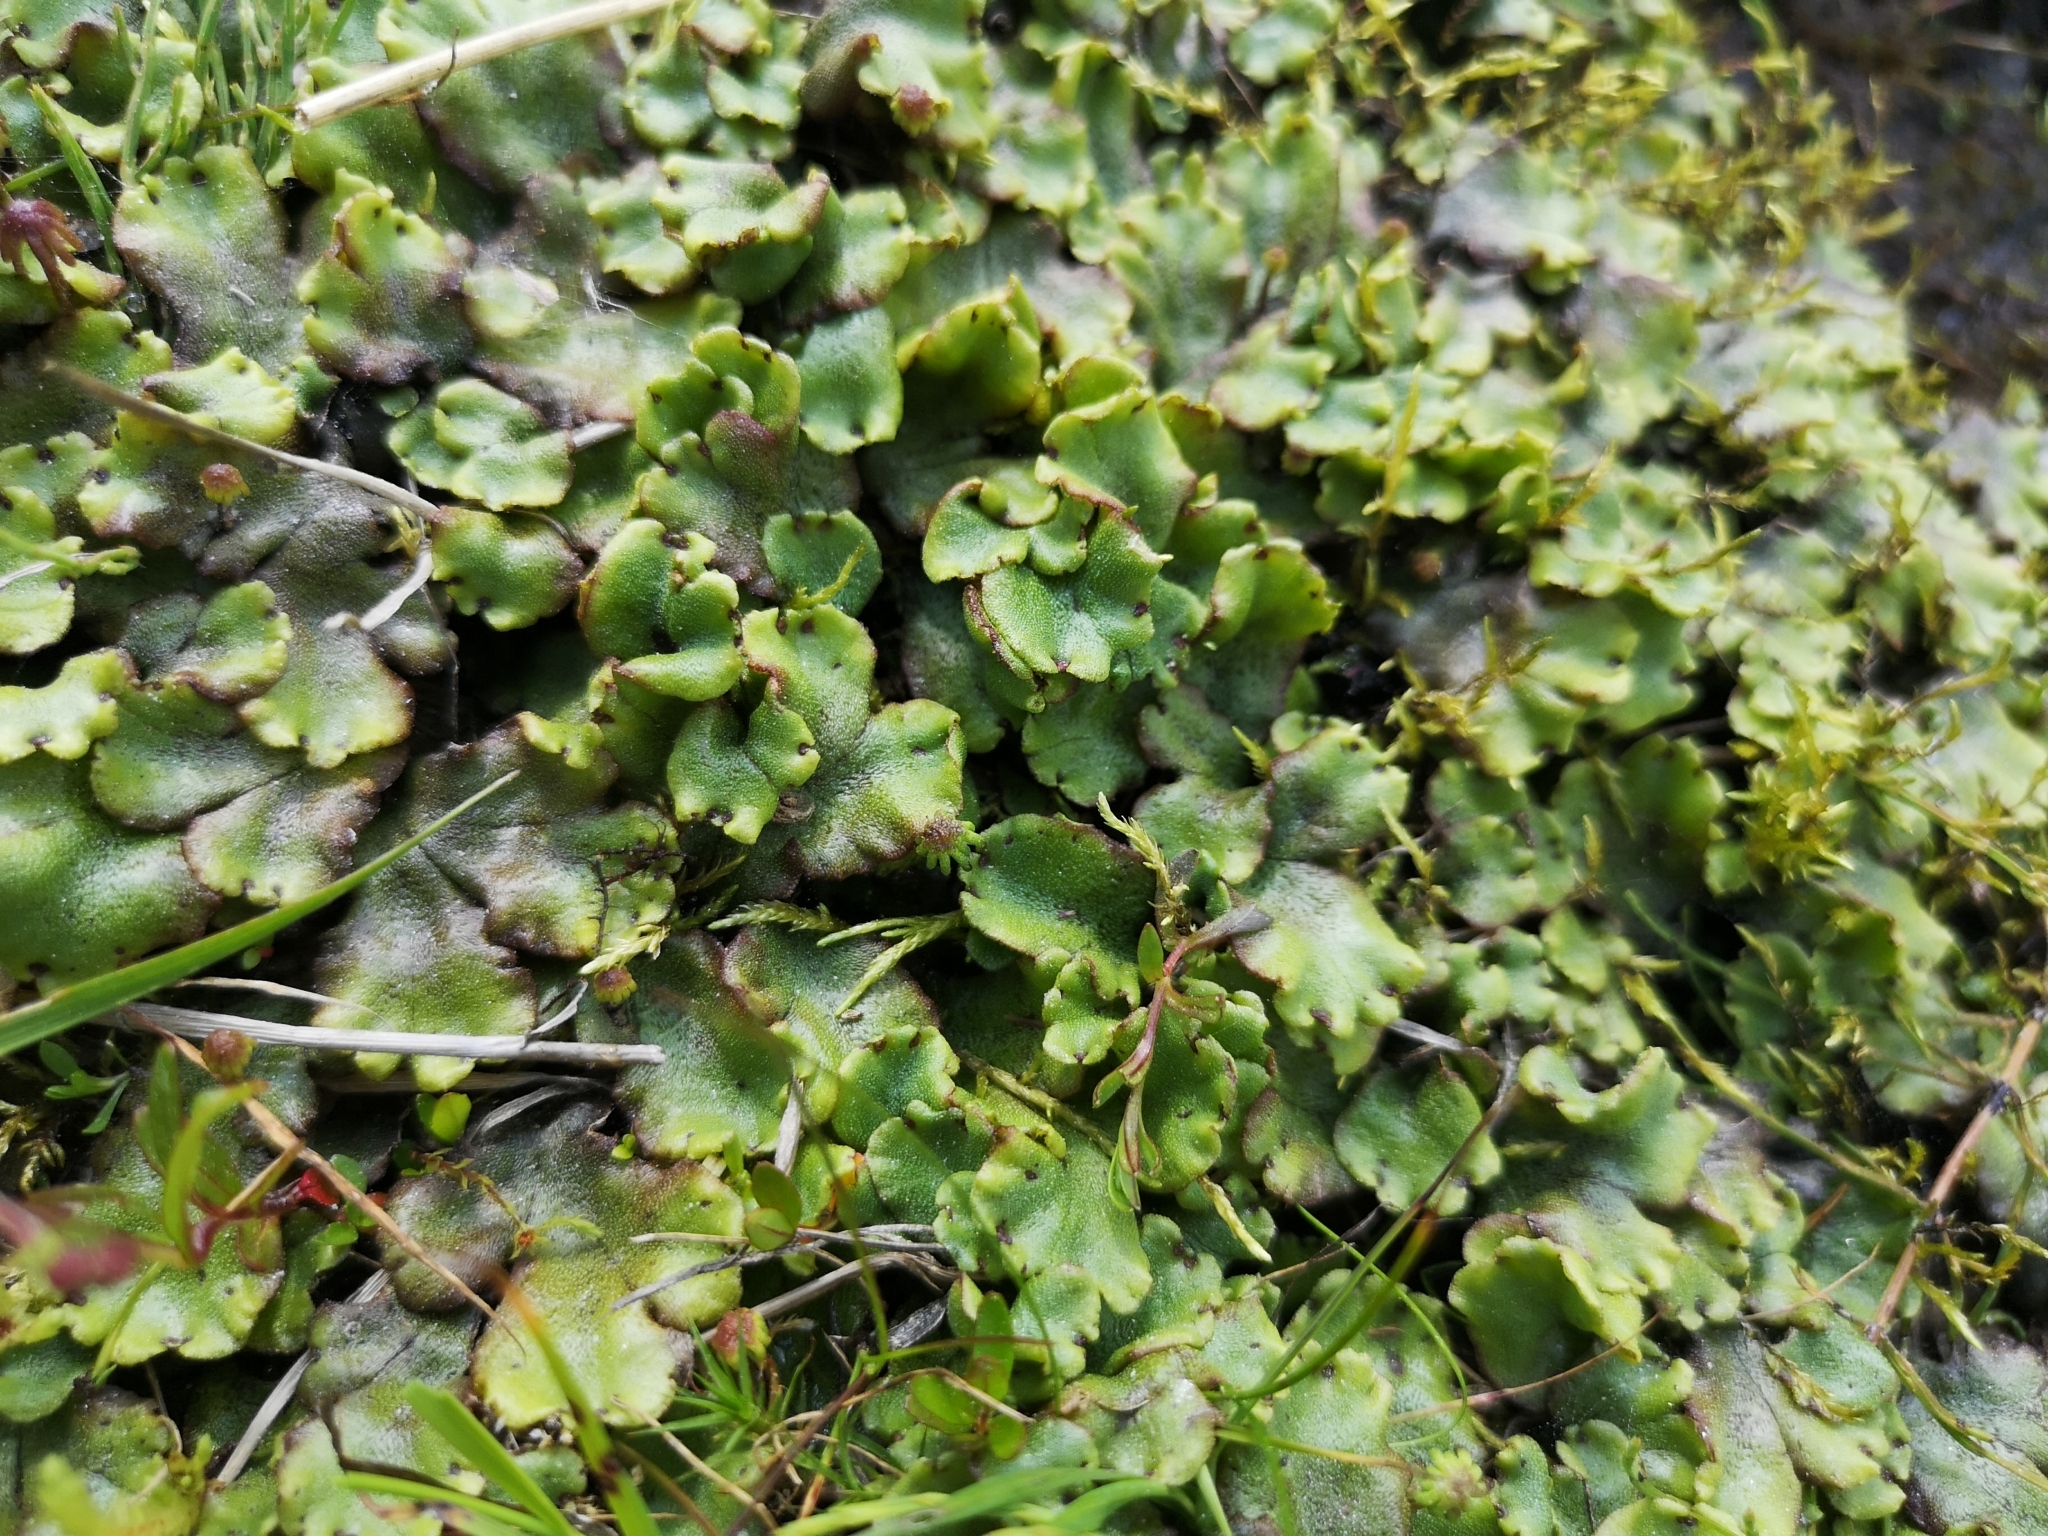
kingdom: Plantae
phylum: Marchantiophyta
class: Marchantiopsida
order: Marchantiales
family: Marchantiaceae
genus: Marchantia
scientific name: Marchantia polymorpha
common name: Common liverwort
